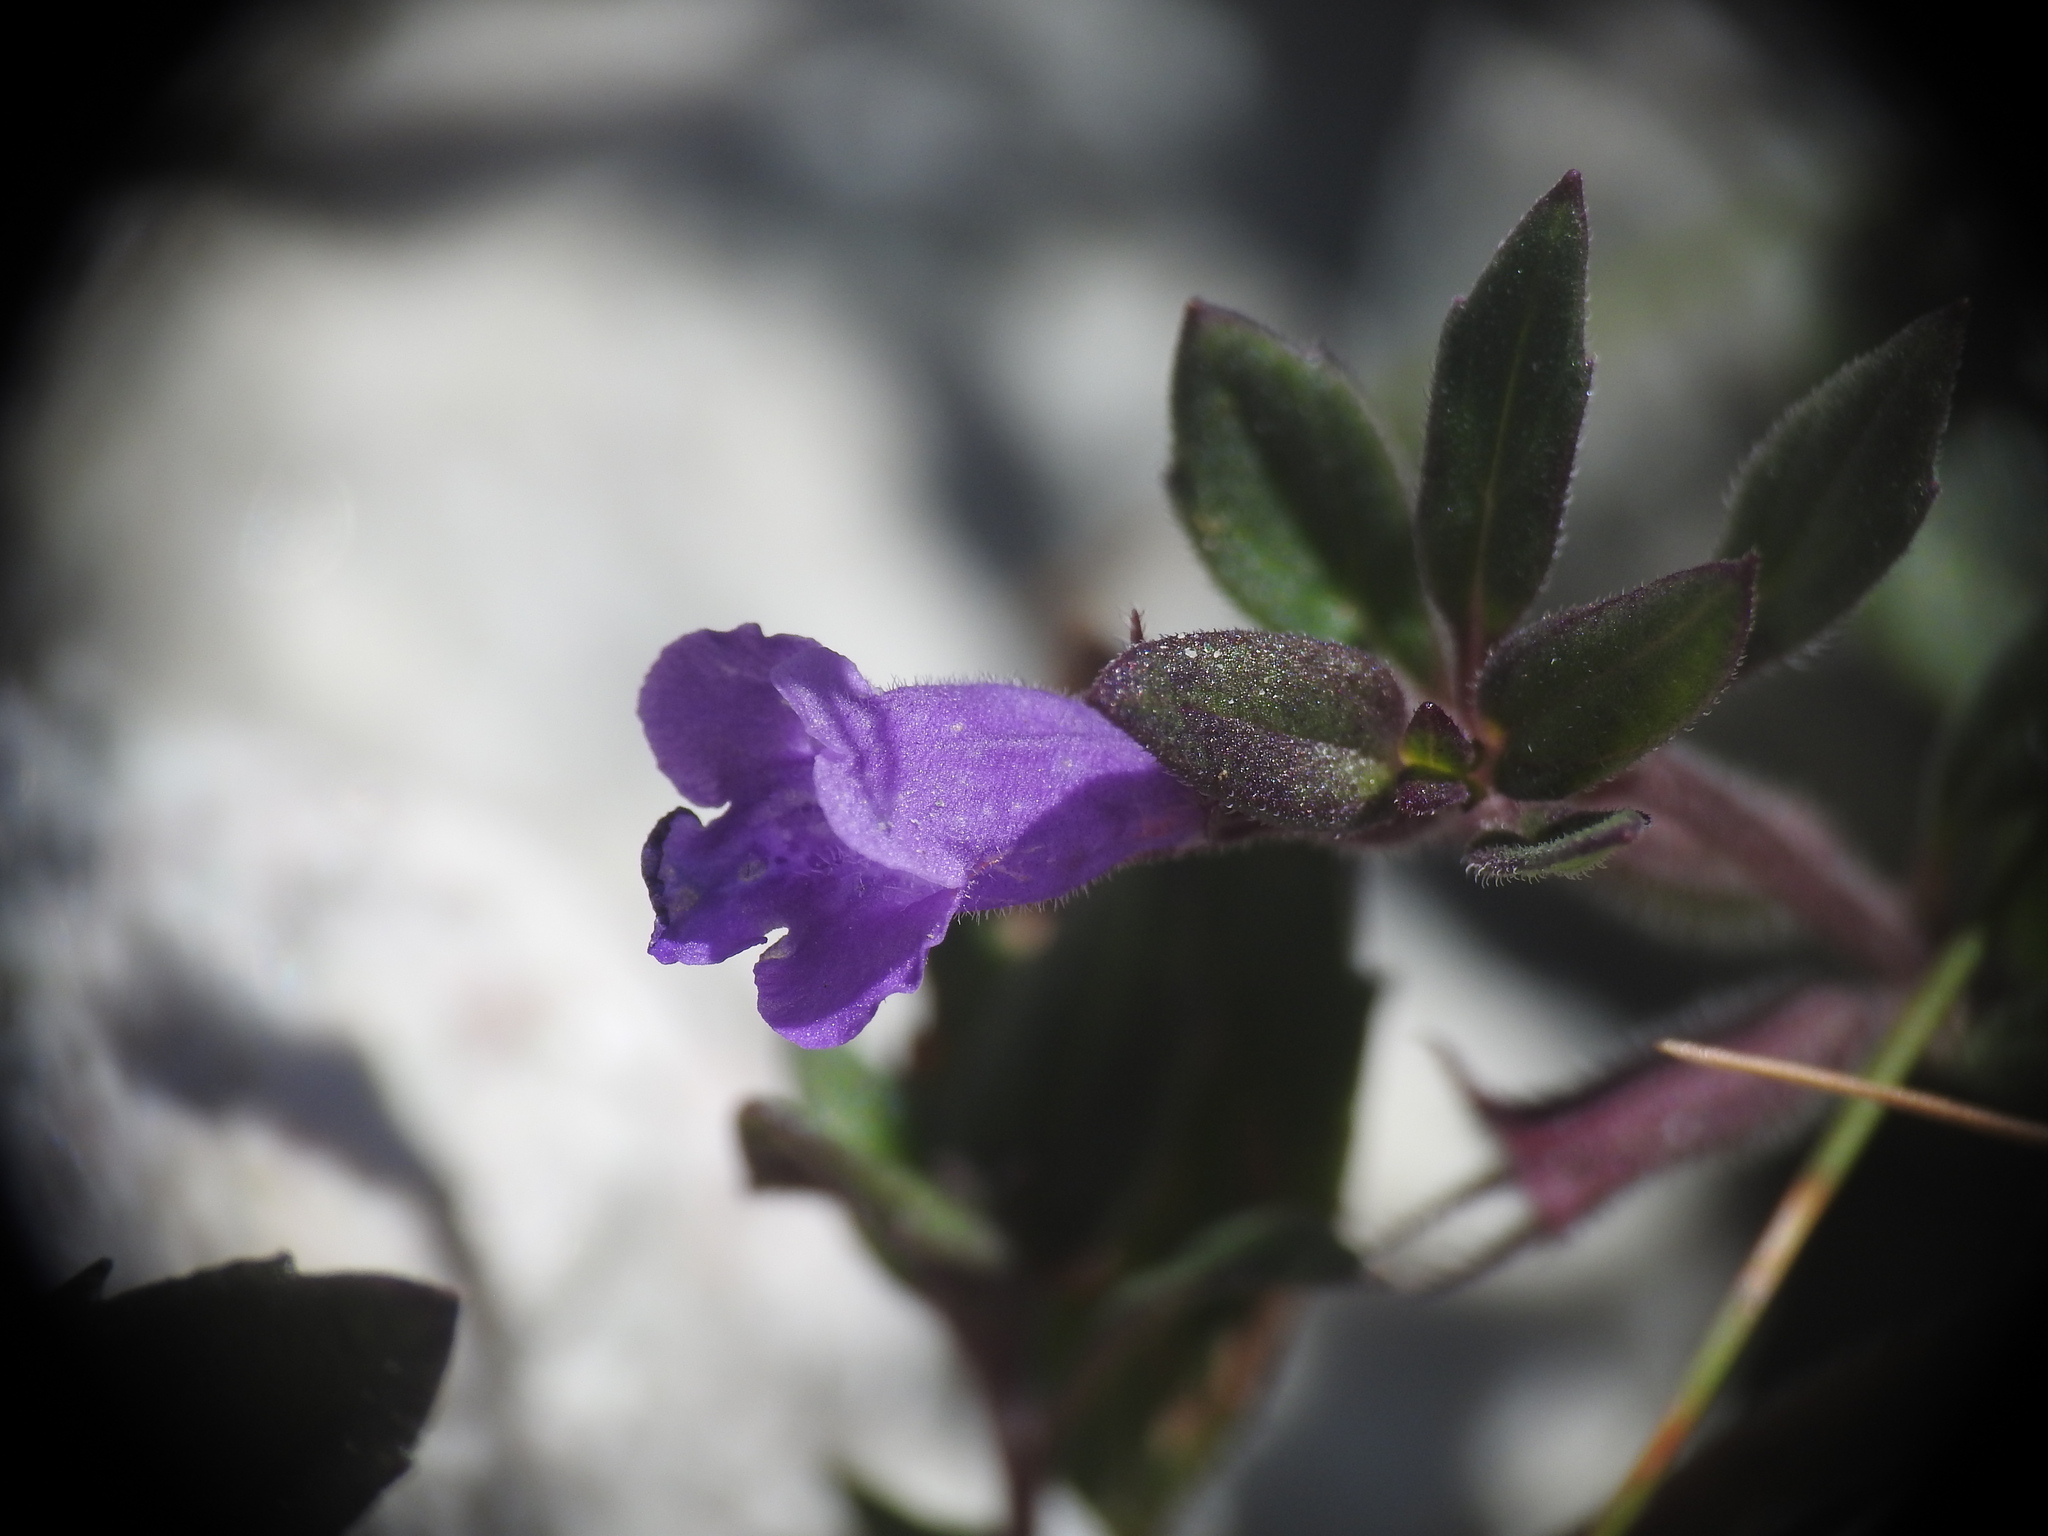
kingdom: Plantae
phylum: Tracheophyta
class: Magnoliopsida
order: Lamiales
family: Lamiaceae
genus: Clinopodium
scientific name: Clinopodium alpinum
